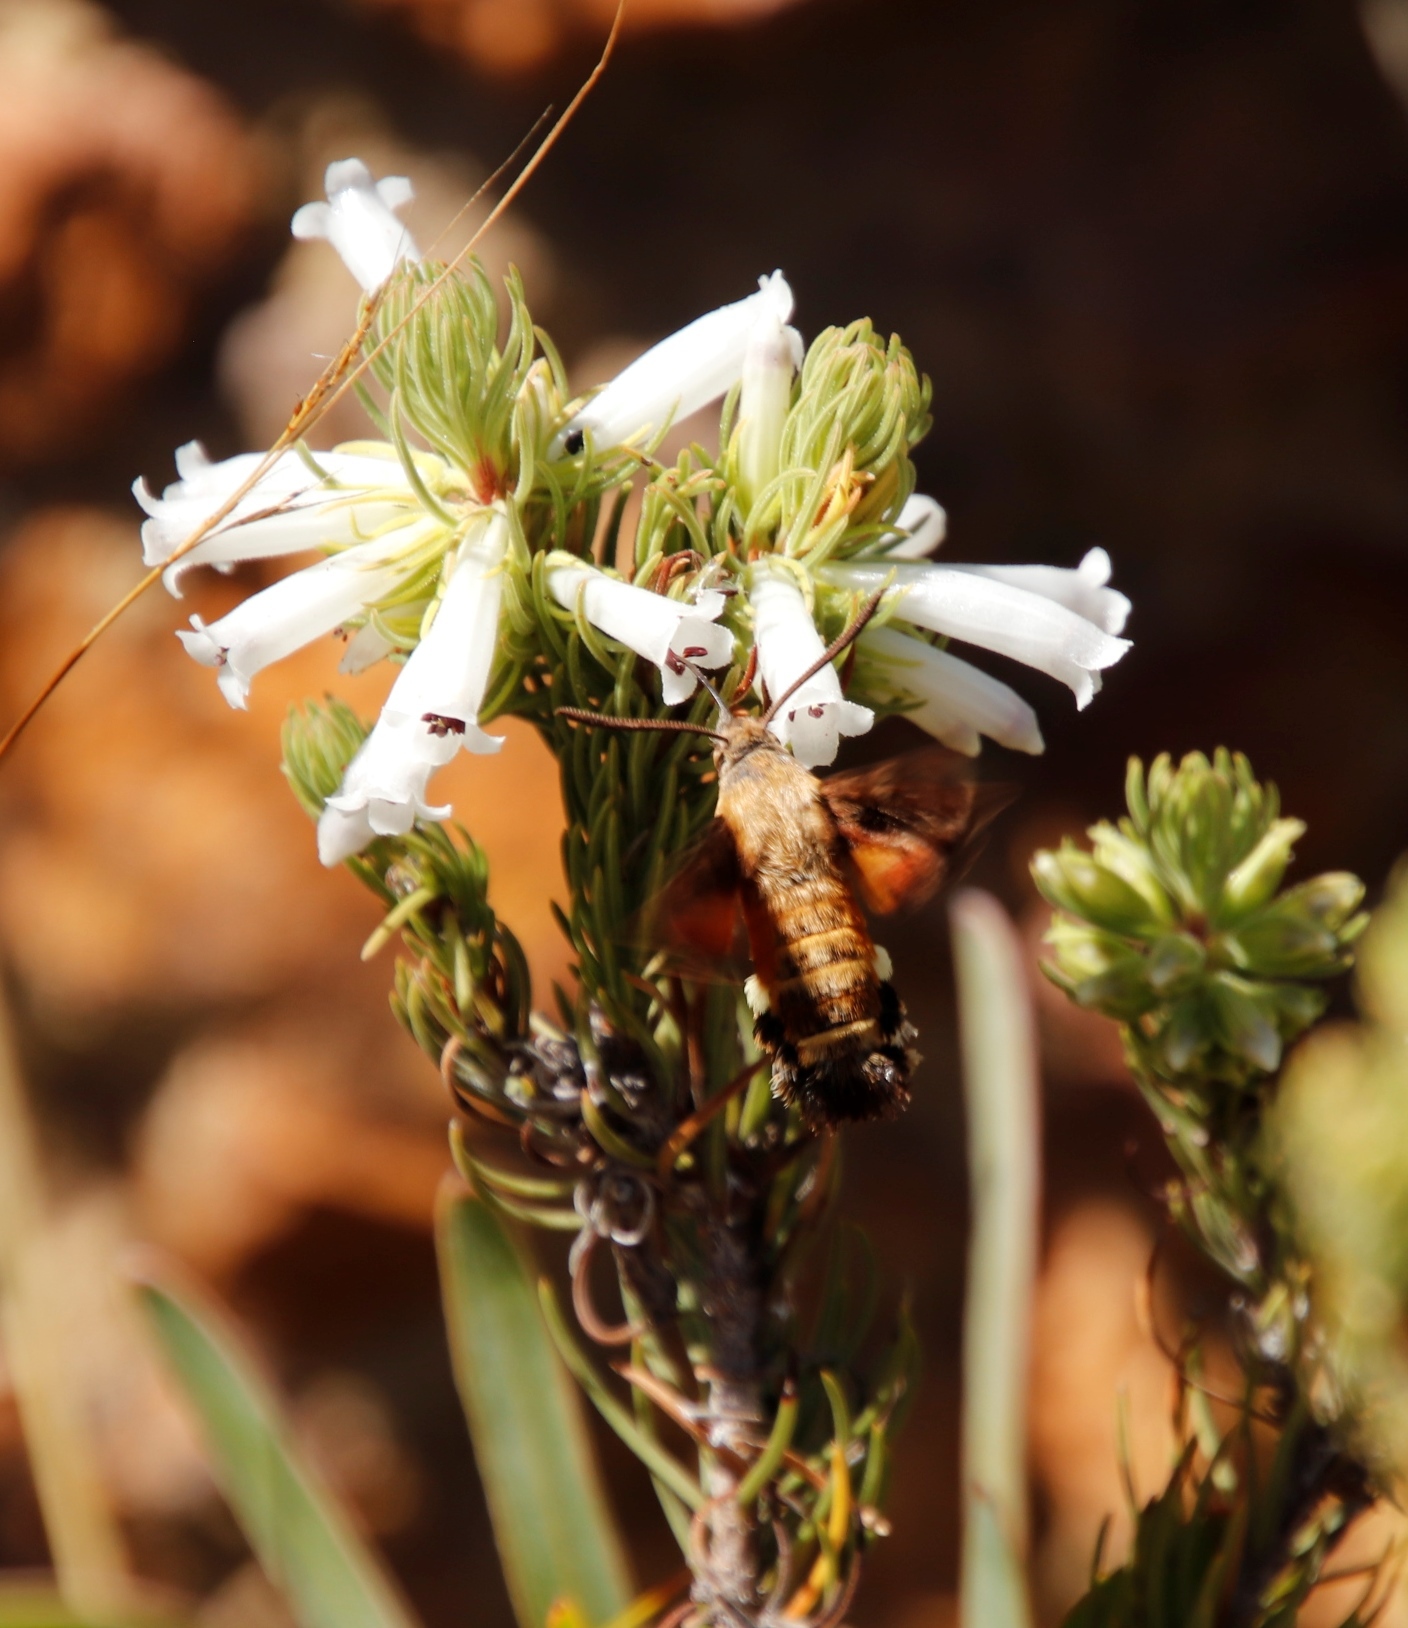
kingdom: Animalia
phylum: Arthropoda
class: Insecta
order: Lepidoptera
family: Sphingidae
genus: Macroglossum
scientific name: Macroglossum trochilus
